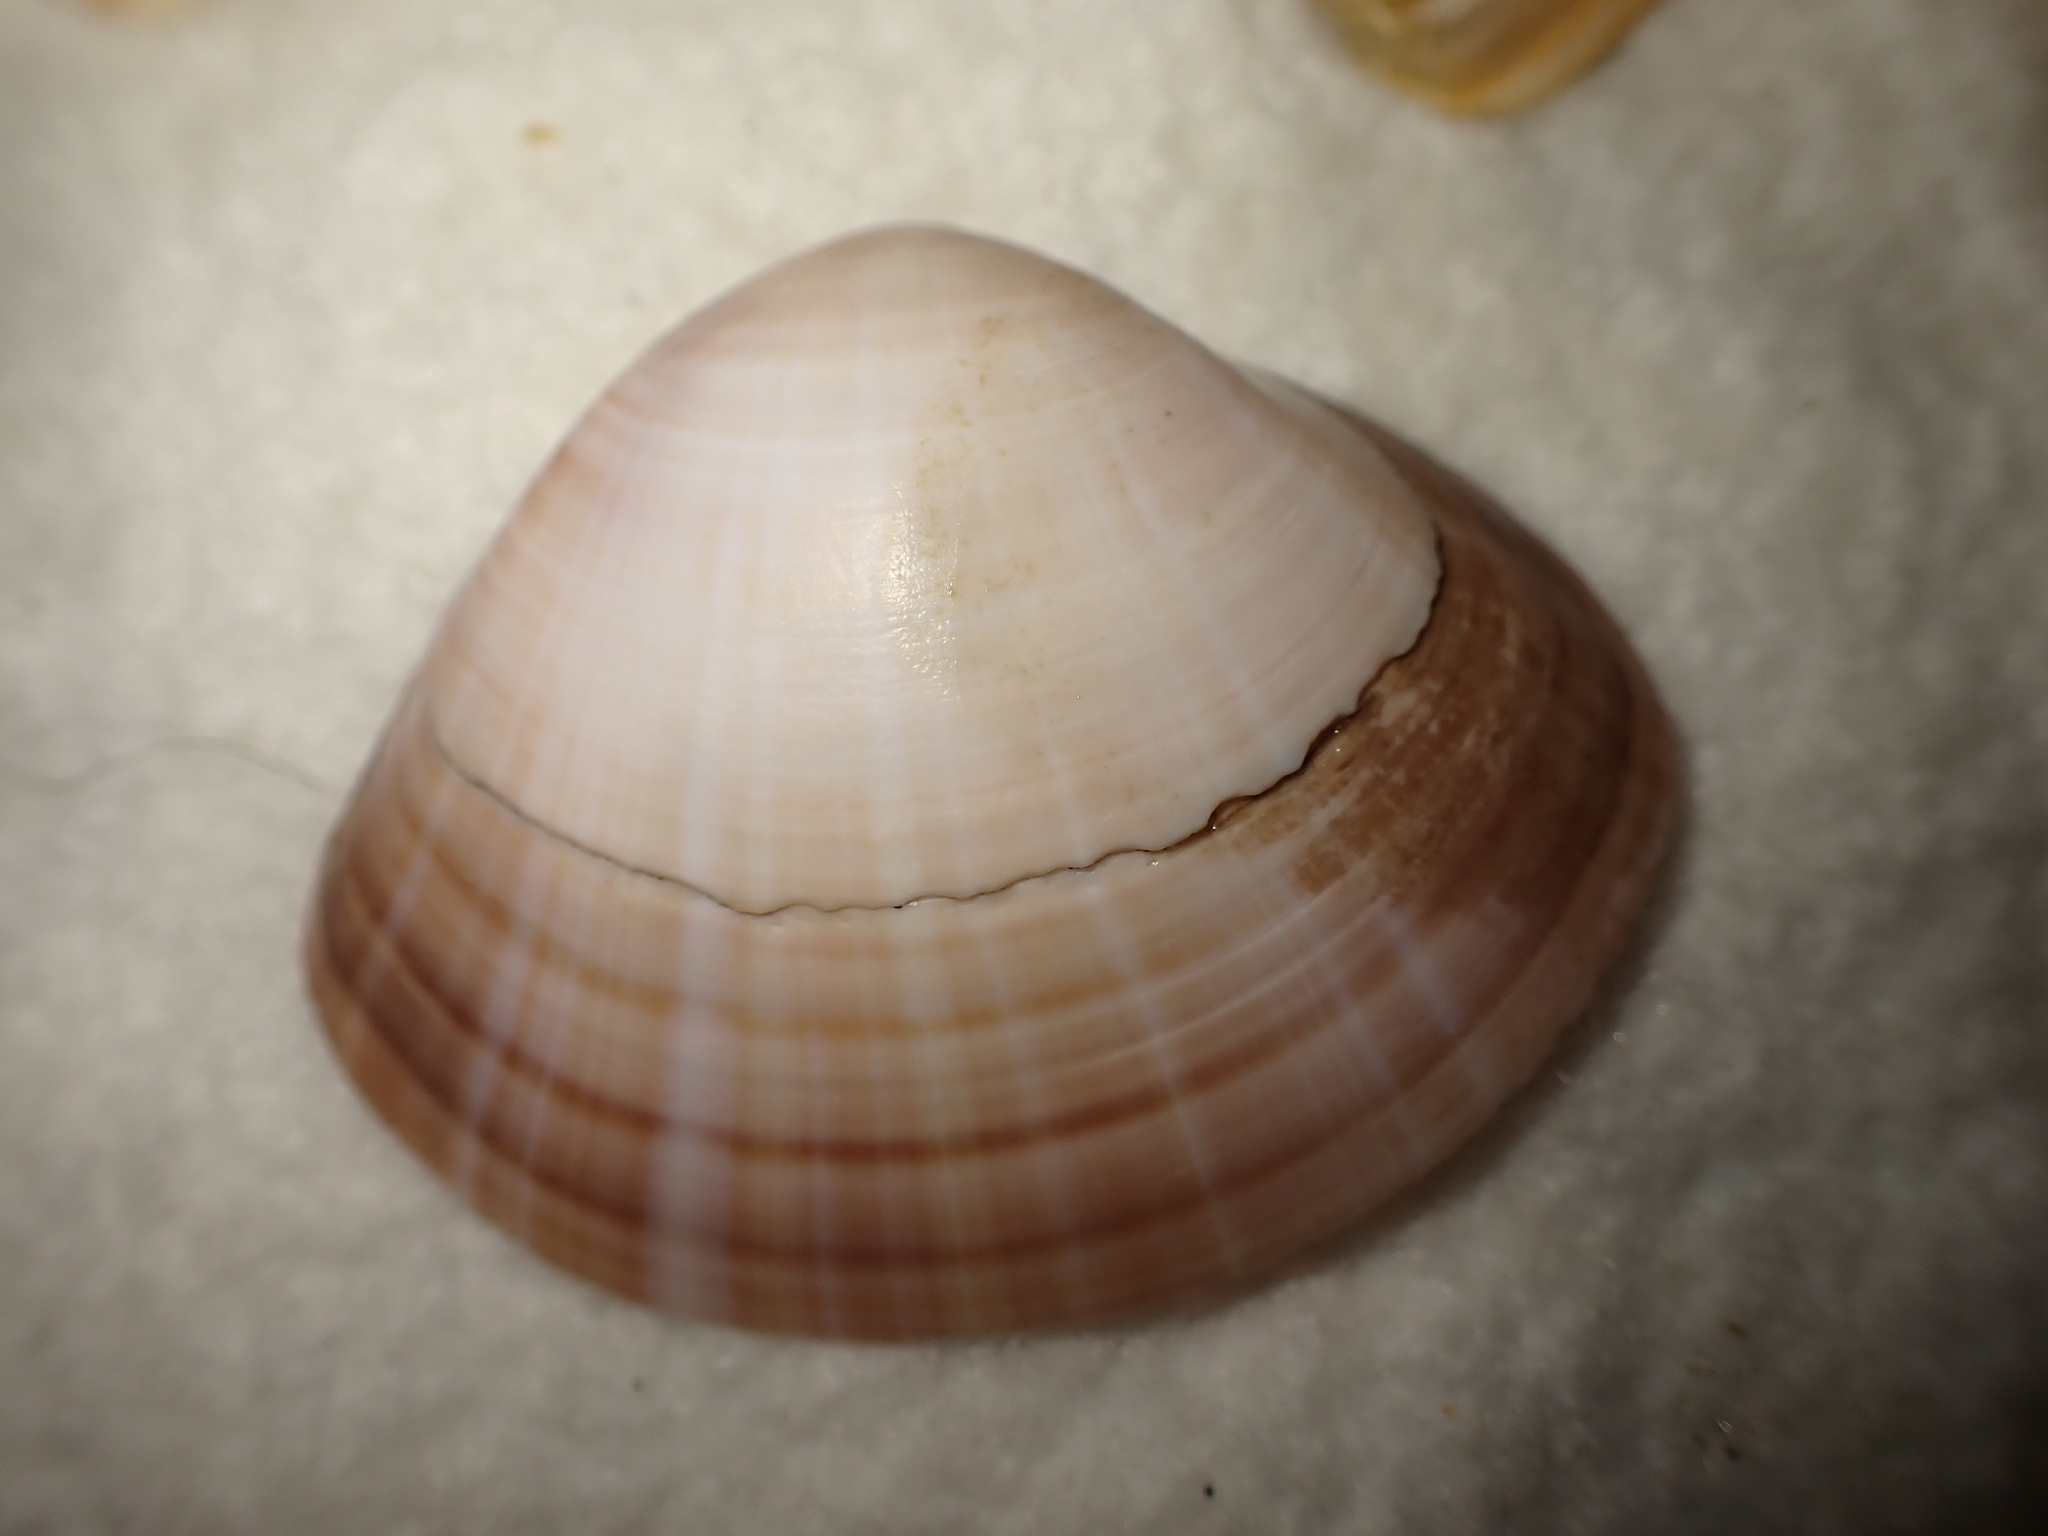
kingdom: Animalia
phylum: Mollusca
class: Bivalvia
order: Venerida
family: Mactridae
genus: Mactra
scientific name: Mactra stultorum
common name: Rayed trough shell
